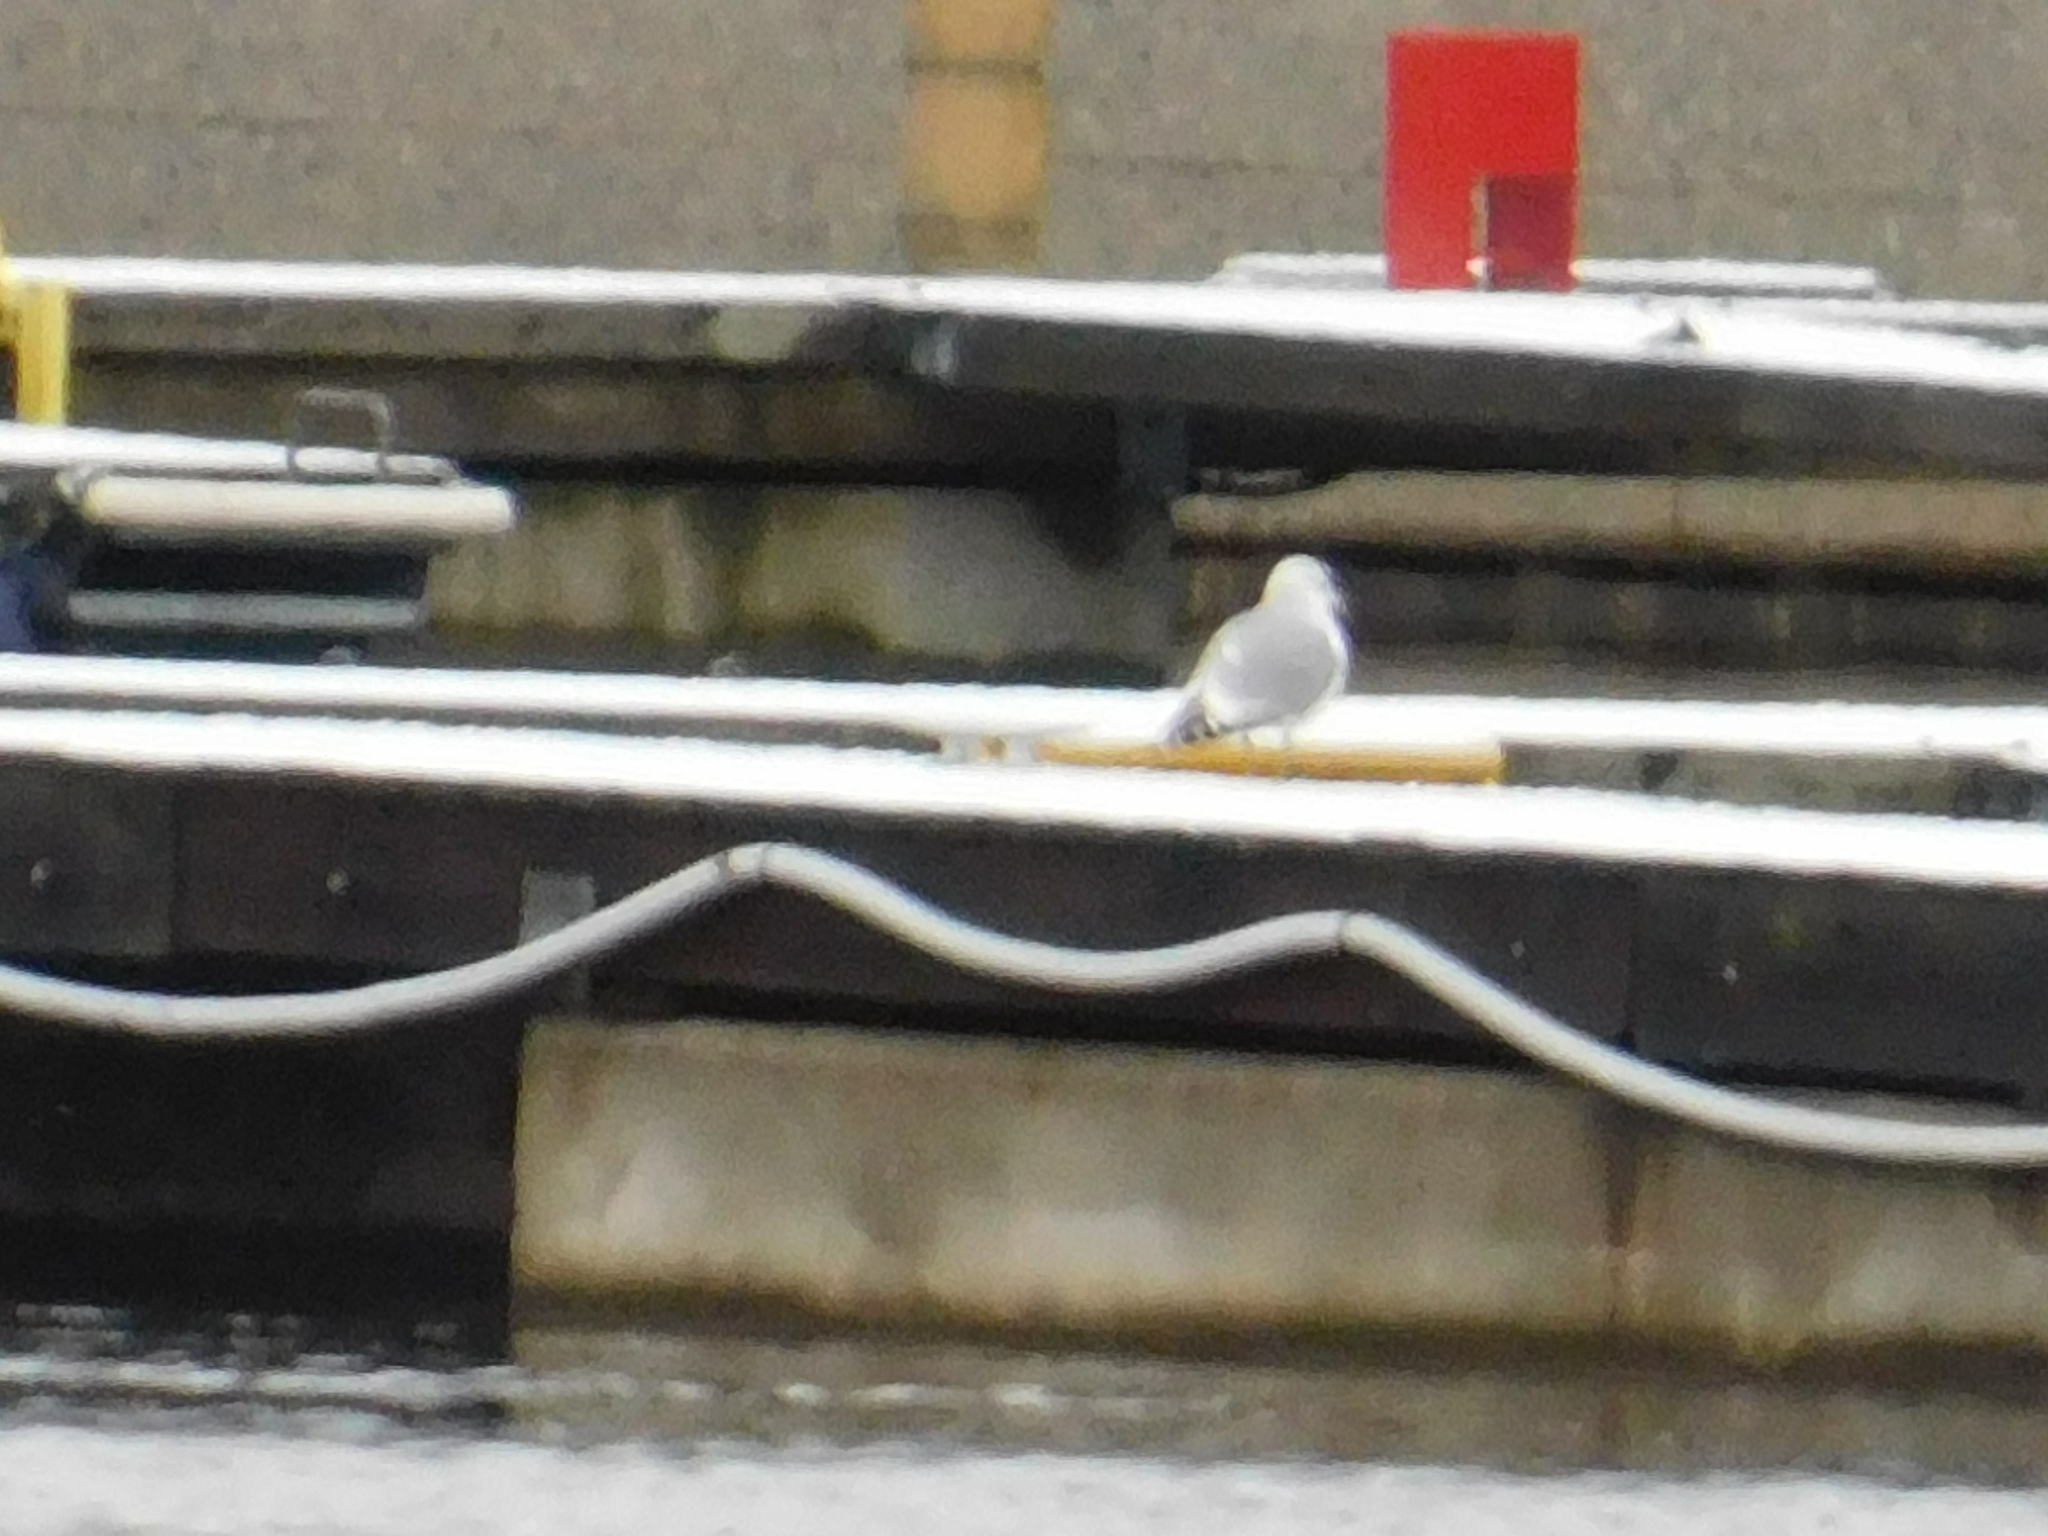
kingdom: Animalia
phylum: Chordata
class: Aves
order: Charadriiformes
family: Laridae
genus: Larus
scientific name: Larus canus
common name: Mew gull
